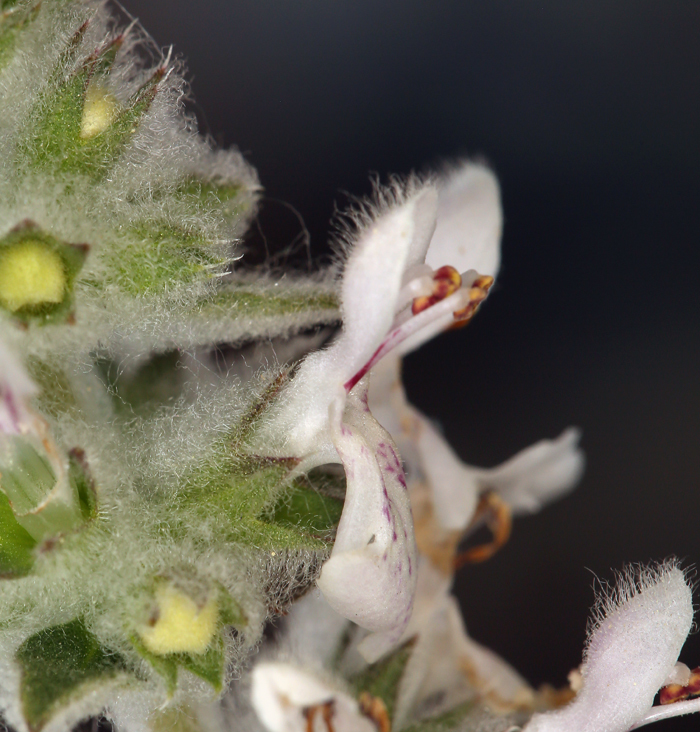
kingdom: Plantae
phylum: Tracheophyta
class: Magnoliopsida
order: Lamiales
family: Lamiaceae
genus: Stachys
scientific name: Stachys albens
